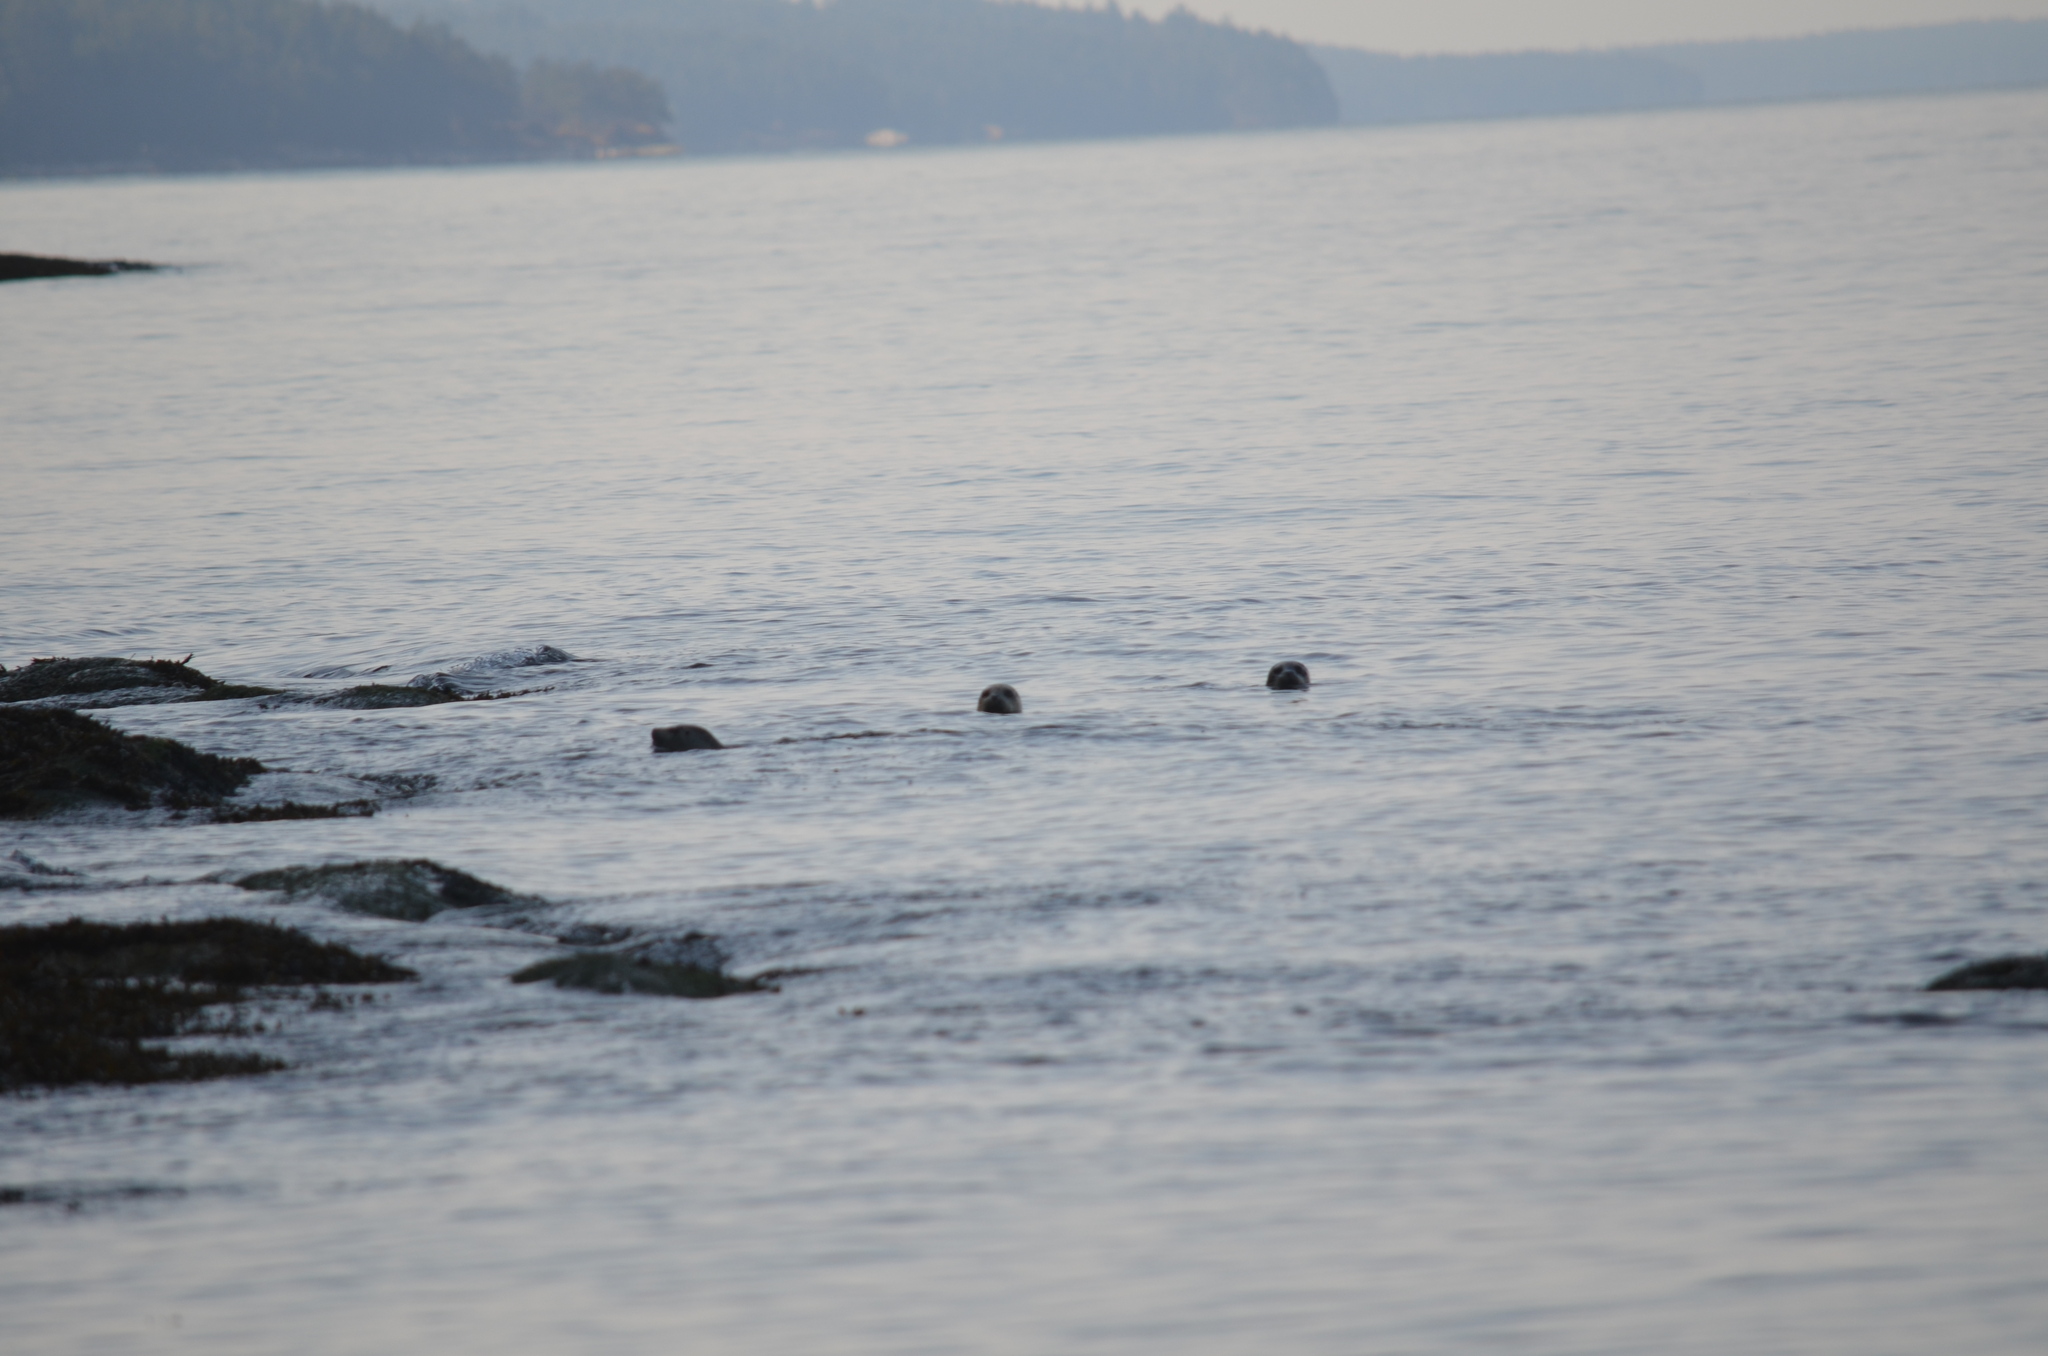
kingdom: Animalia
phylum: Chordata
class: Mammalia
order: Carnivora
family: Phocidae
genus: Phoca
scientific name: Phoca vitulina
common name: Harbor seal
